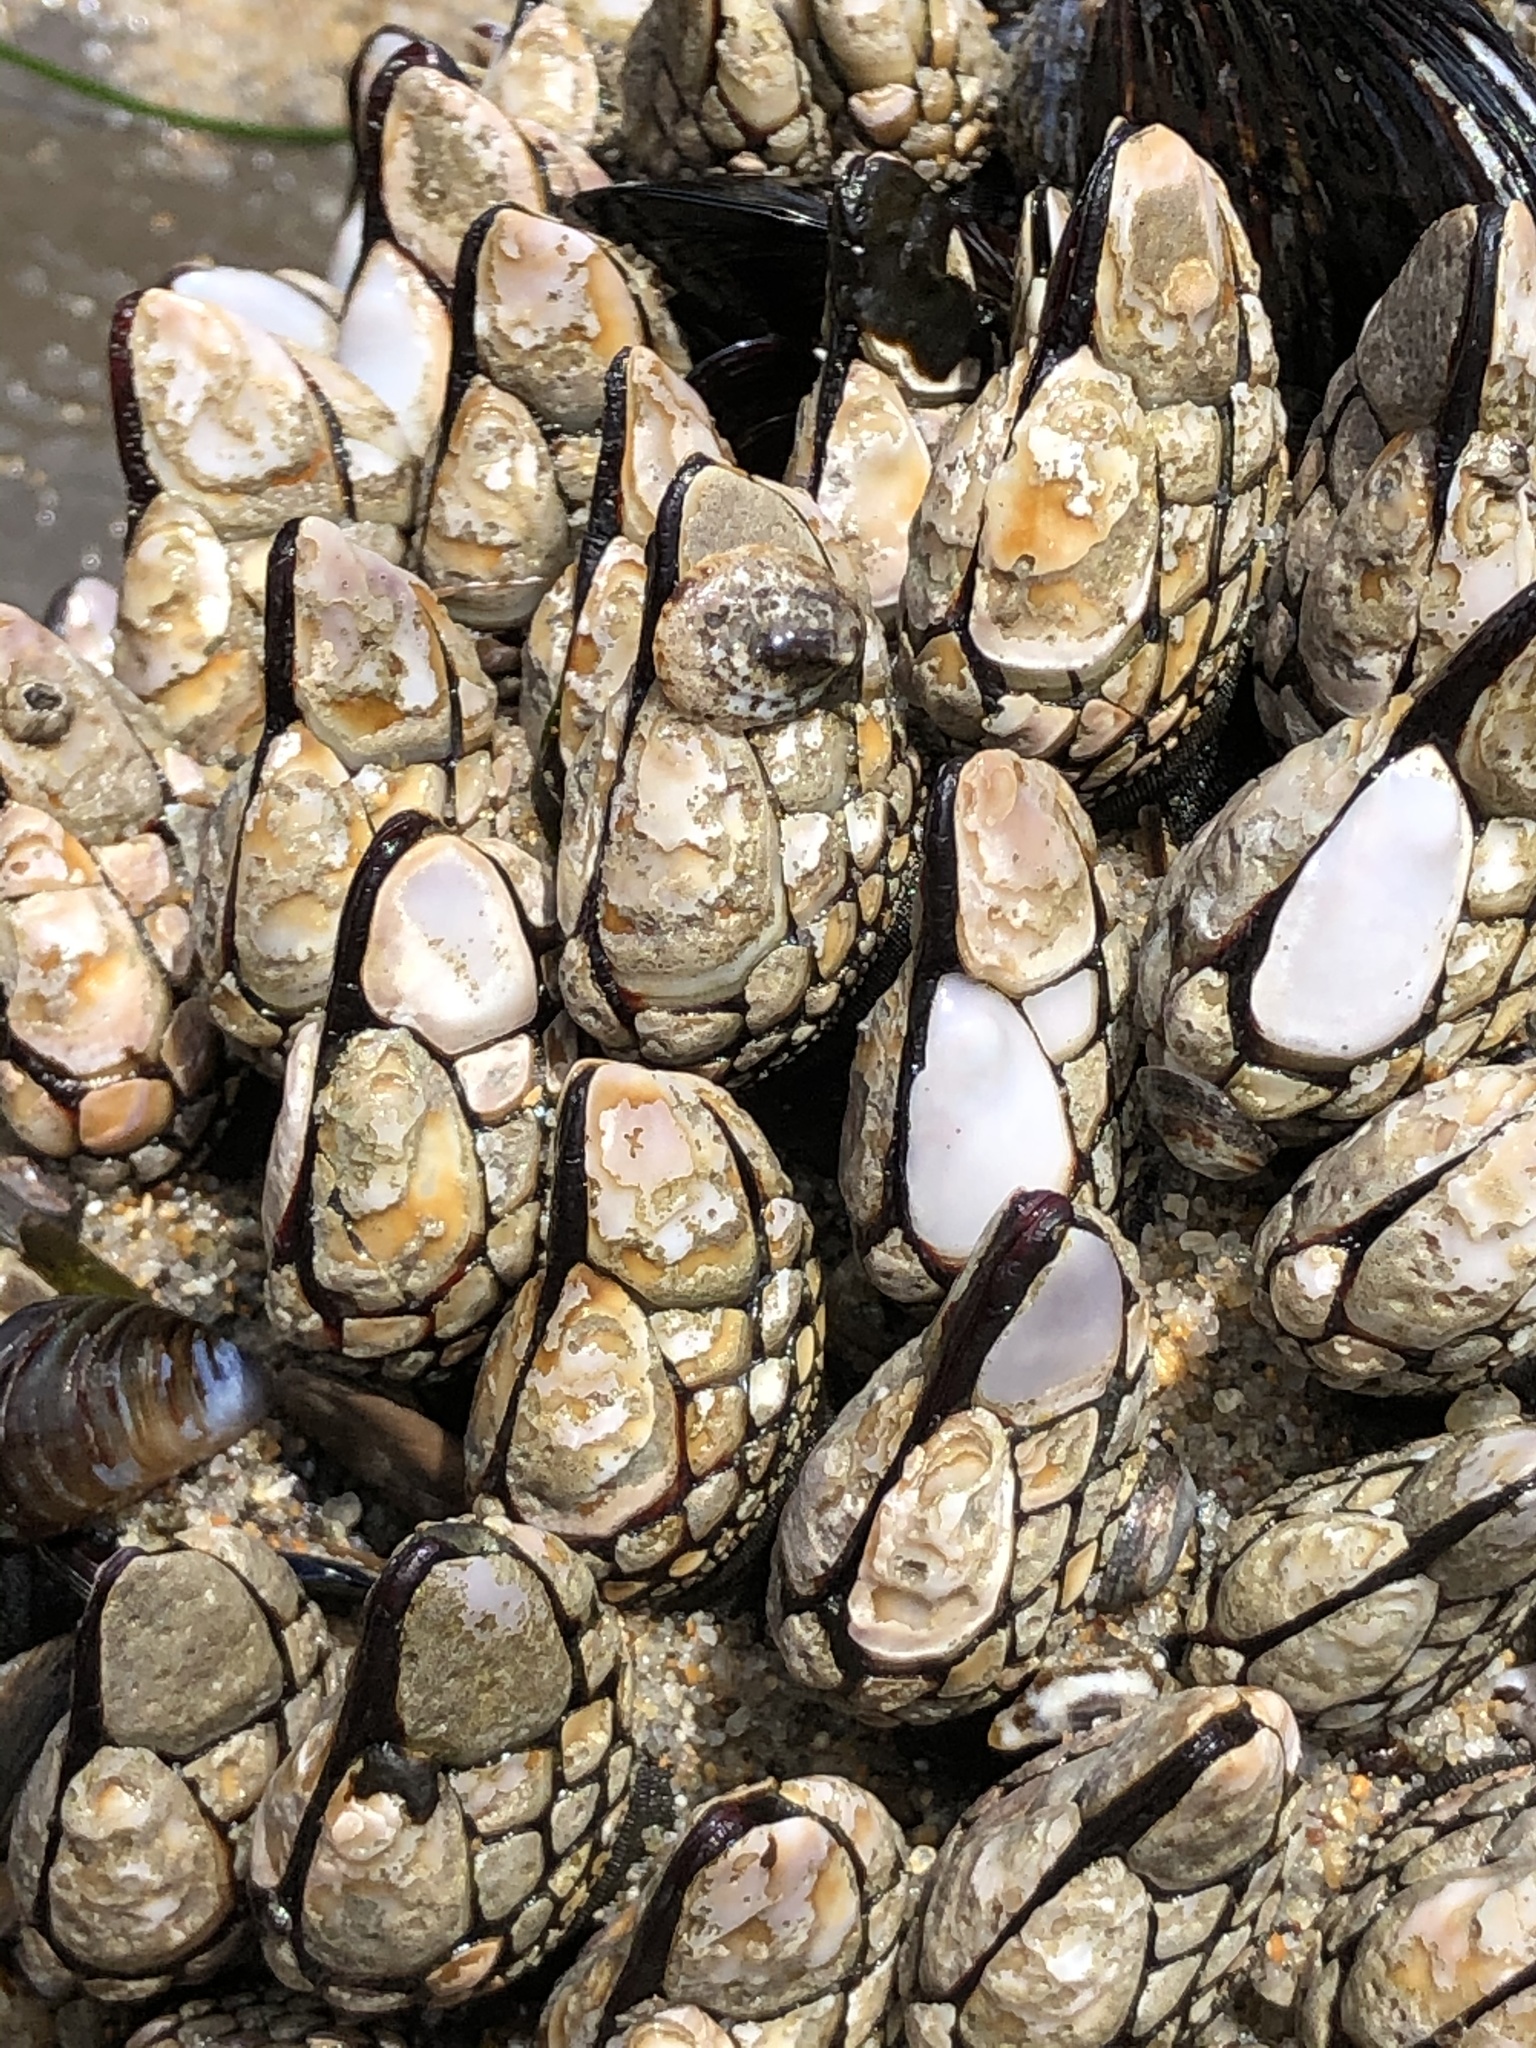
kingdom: Animalia
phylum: Arthropoda
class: Maxillopoda
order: Pedunculata
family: Pollicipedidae
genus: Pollicipes
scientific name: Pollicipes polymerus
